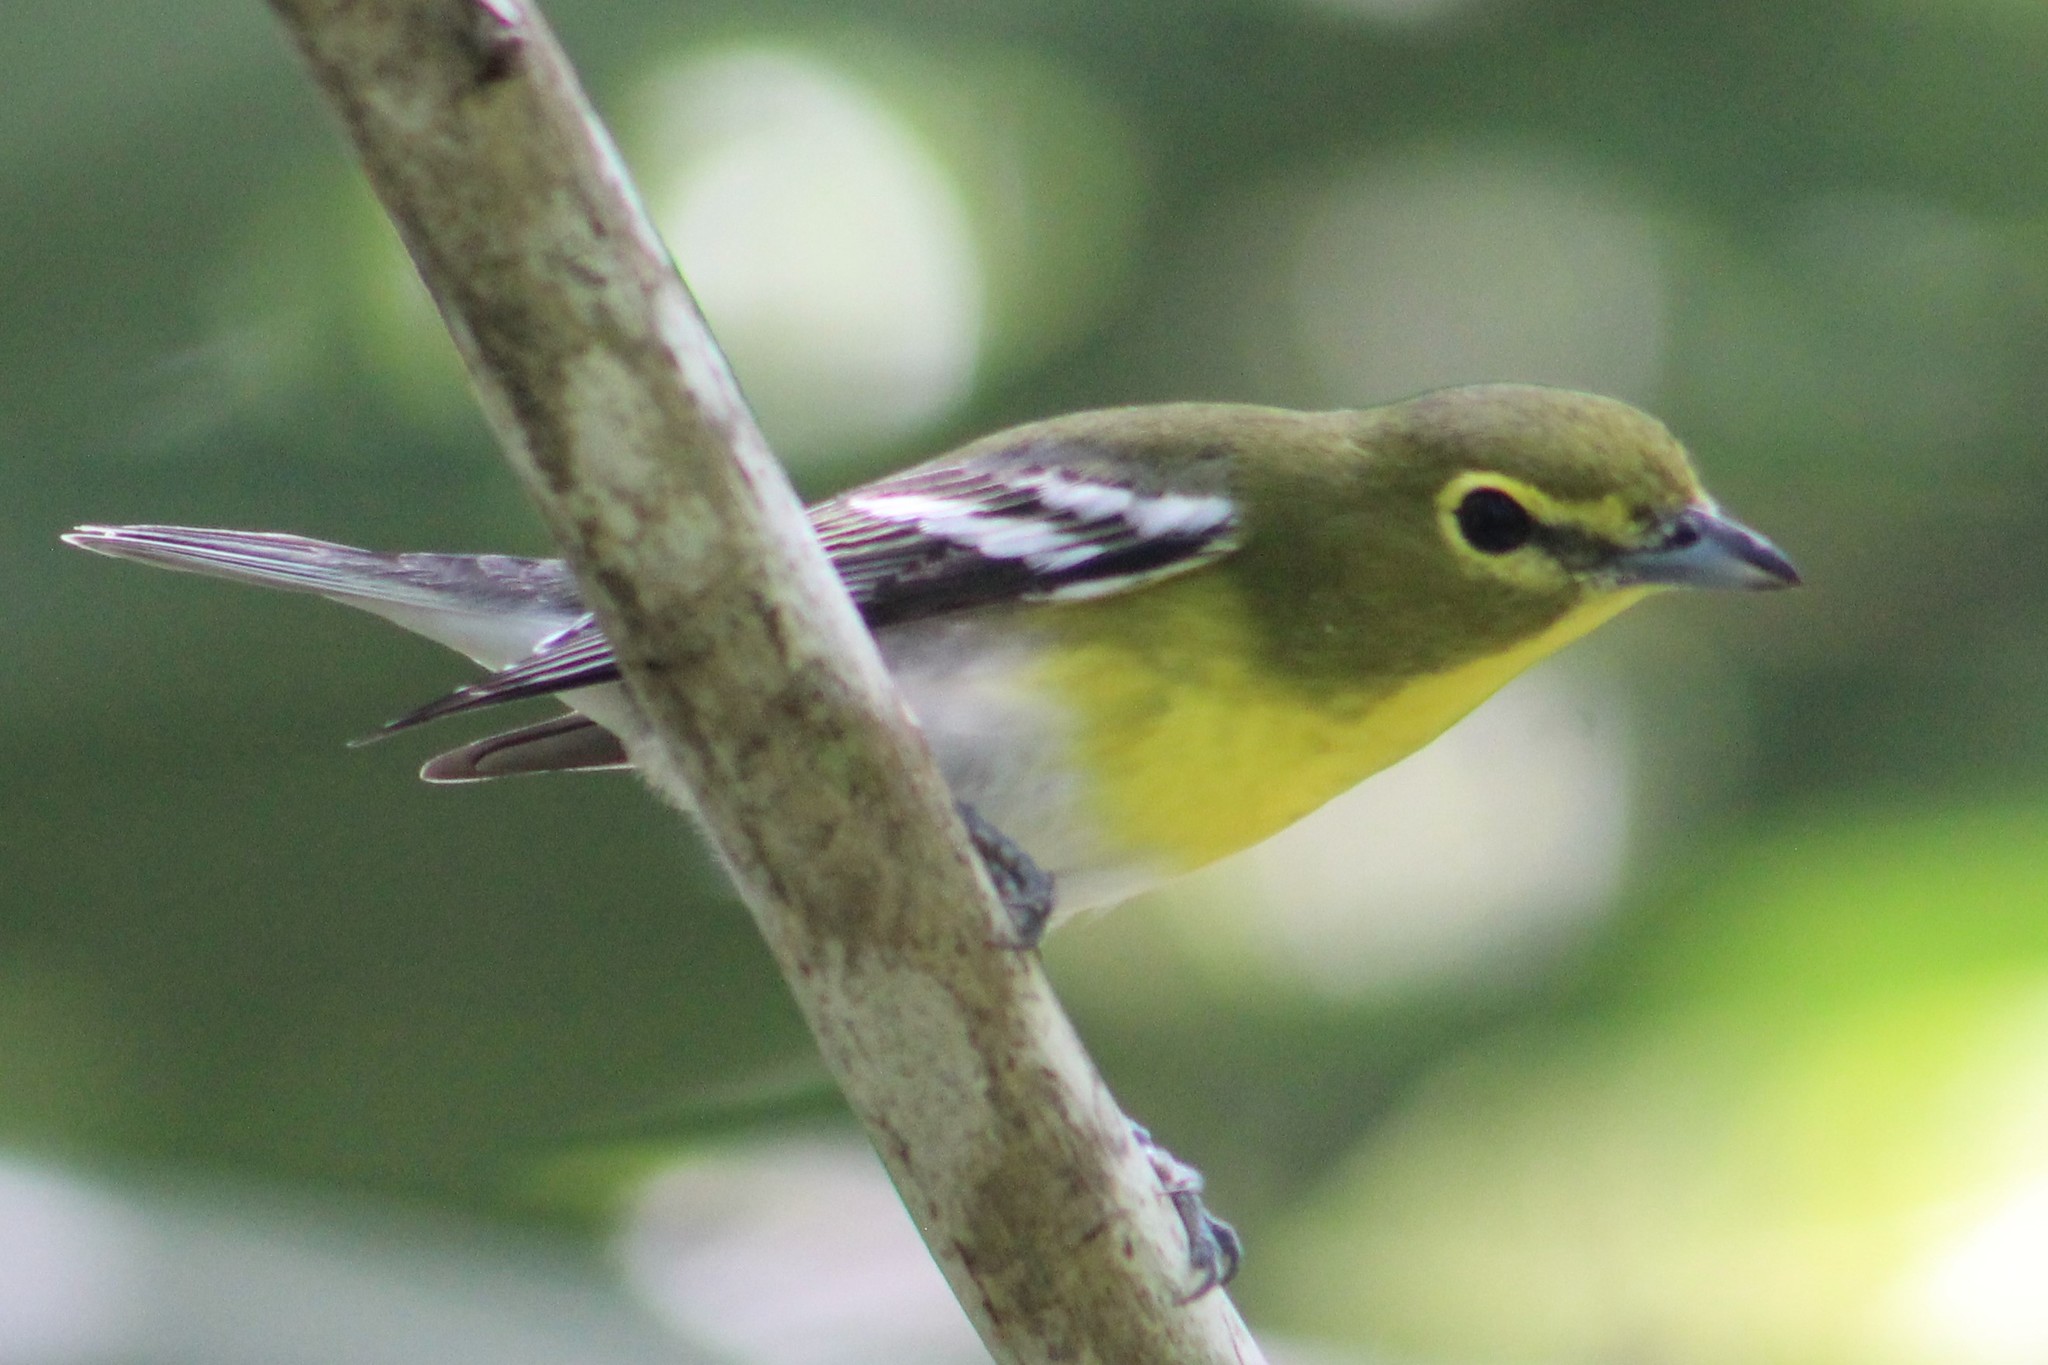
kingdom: Animalia
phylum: Chordata
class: Aves
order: Passeriformes
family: Vireonidae
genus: Vireo
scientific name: Vireo flavifrons
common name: Yellow-throated vireo
